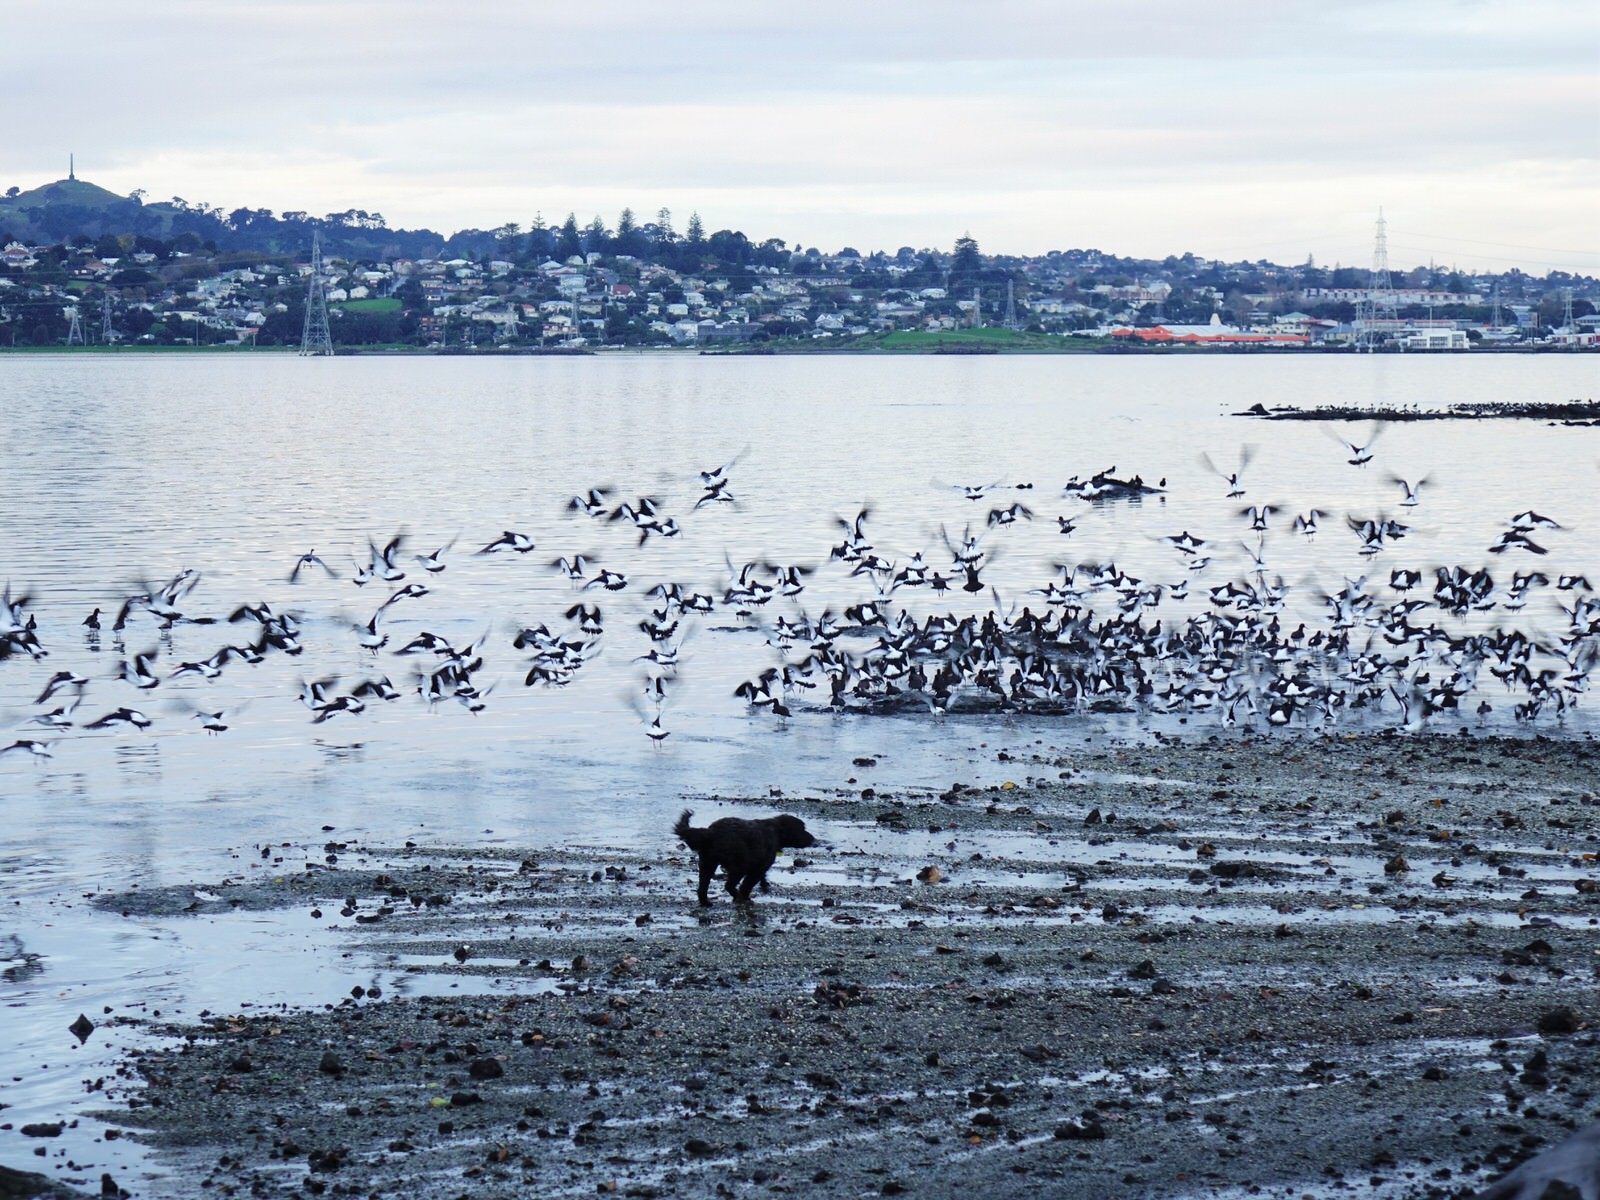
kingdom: Animalia
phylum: Chordata
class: Aves
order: Charadriiformes
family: Haematopodidae
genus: Haematopus
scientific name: Haematopus finschi
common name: South island oystercatcher
